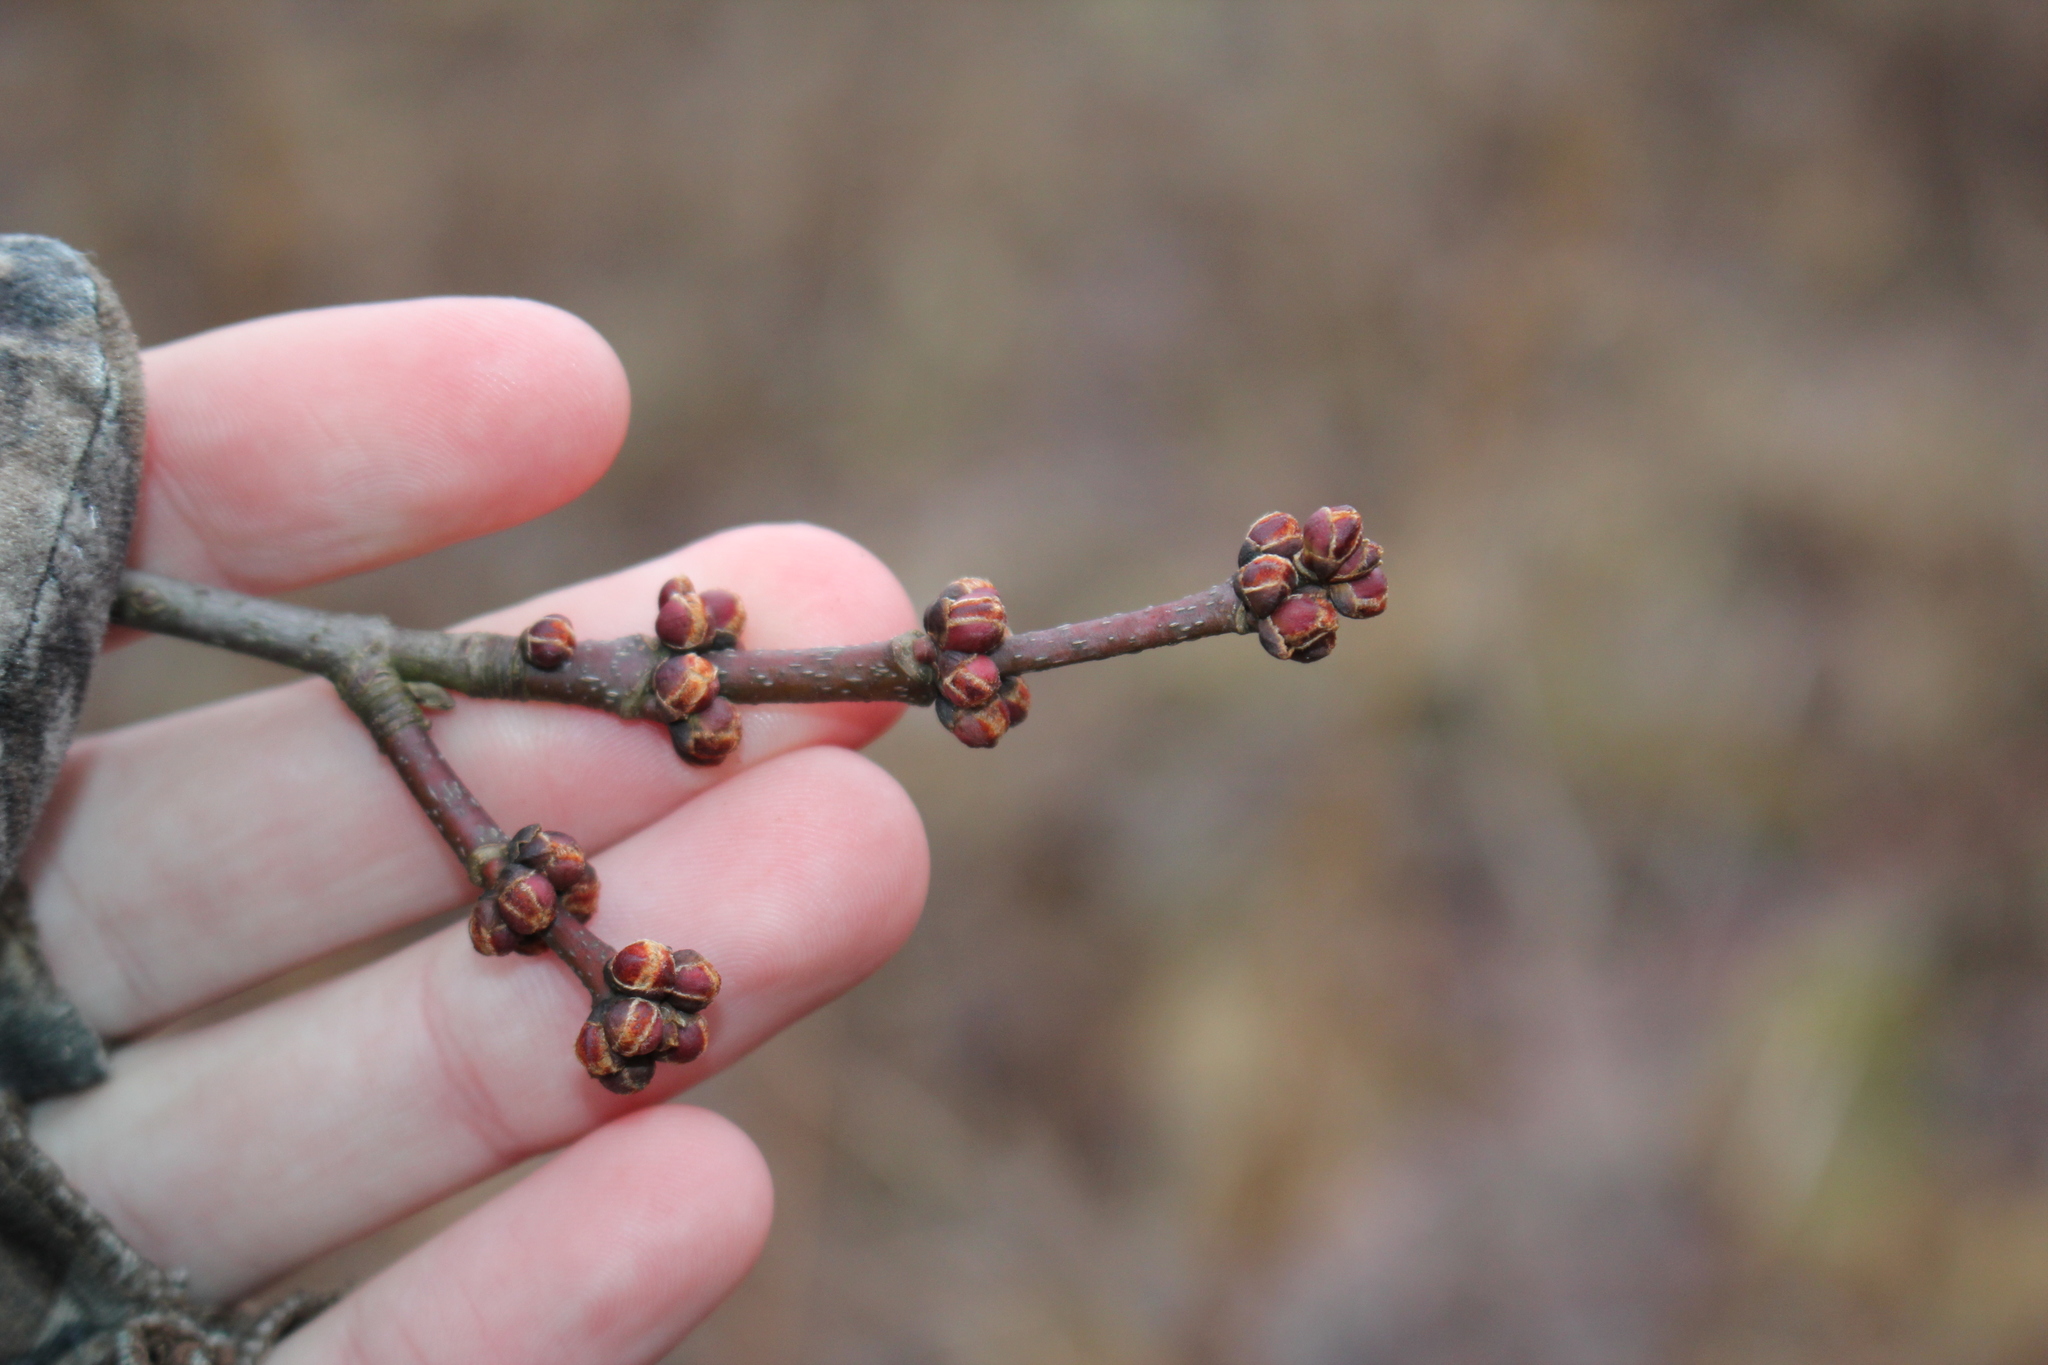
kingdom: Plantae
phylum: Tracheophyta
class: Magnoliopsida
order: Sapindales
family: Sapindaceae
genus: Acer
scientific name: Acer saccharinum
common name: Silver maple
